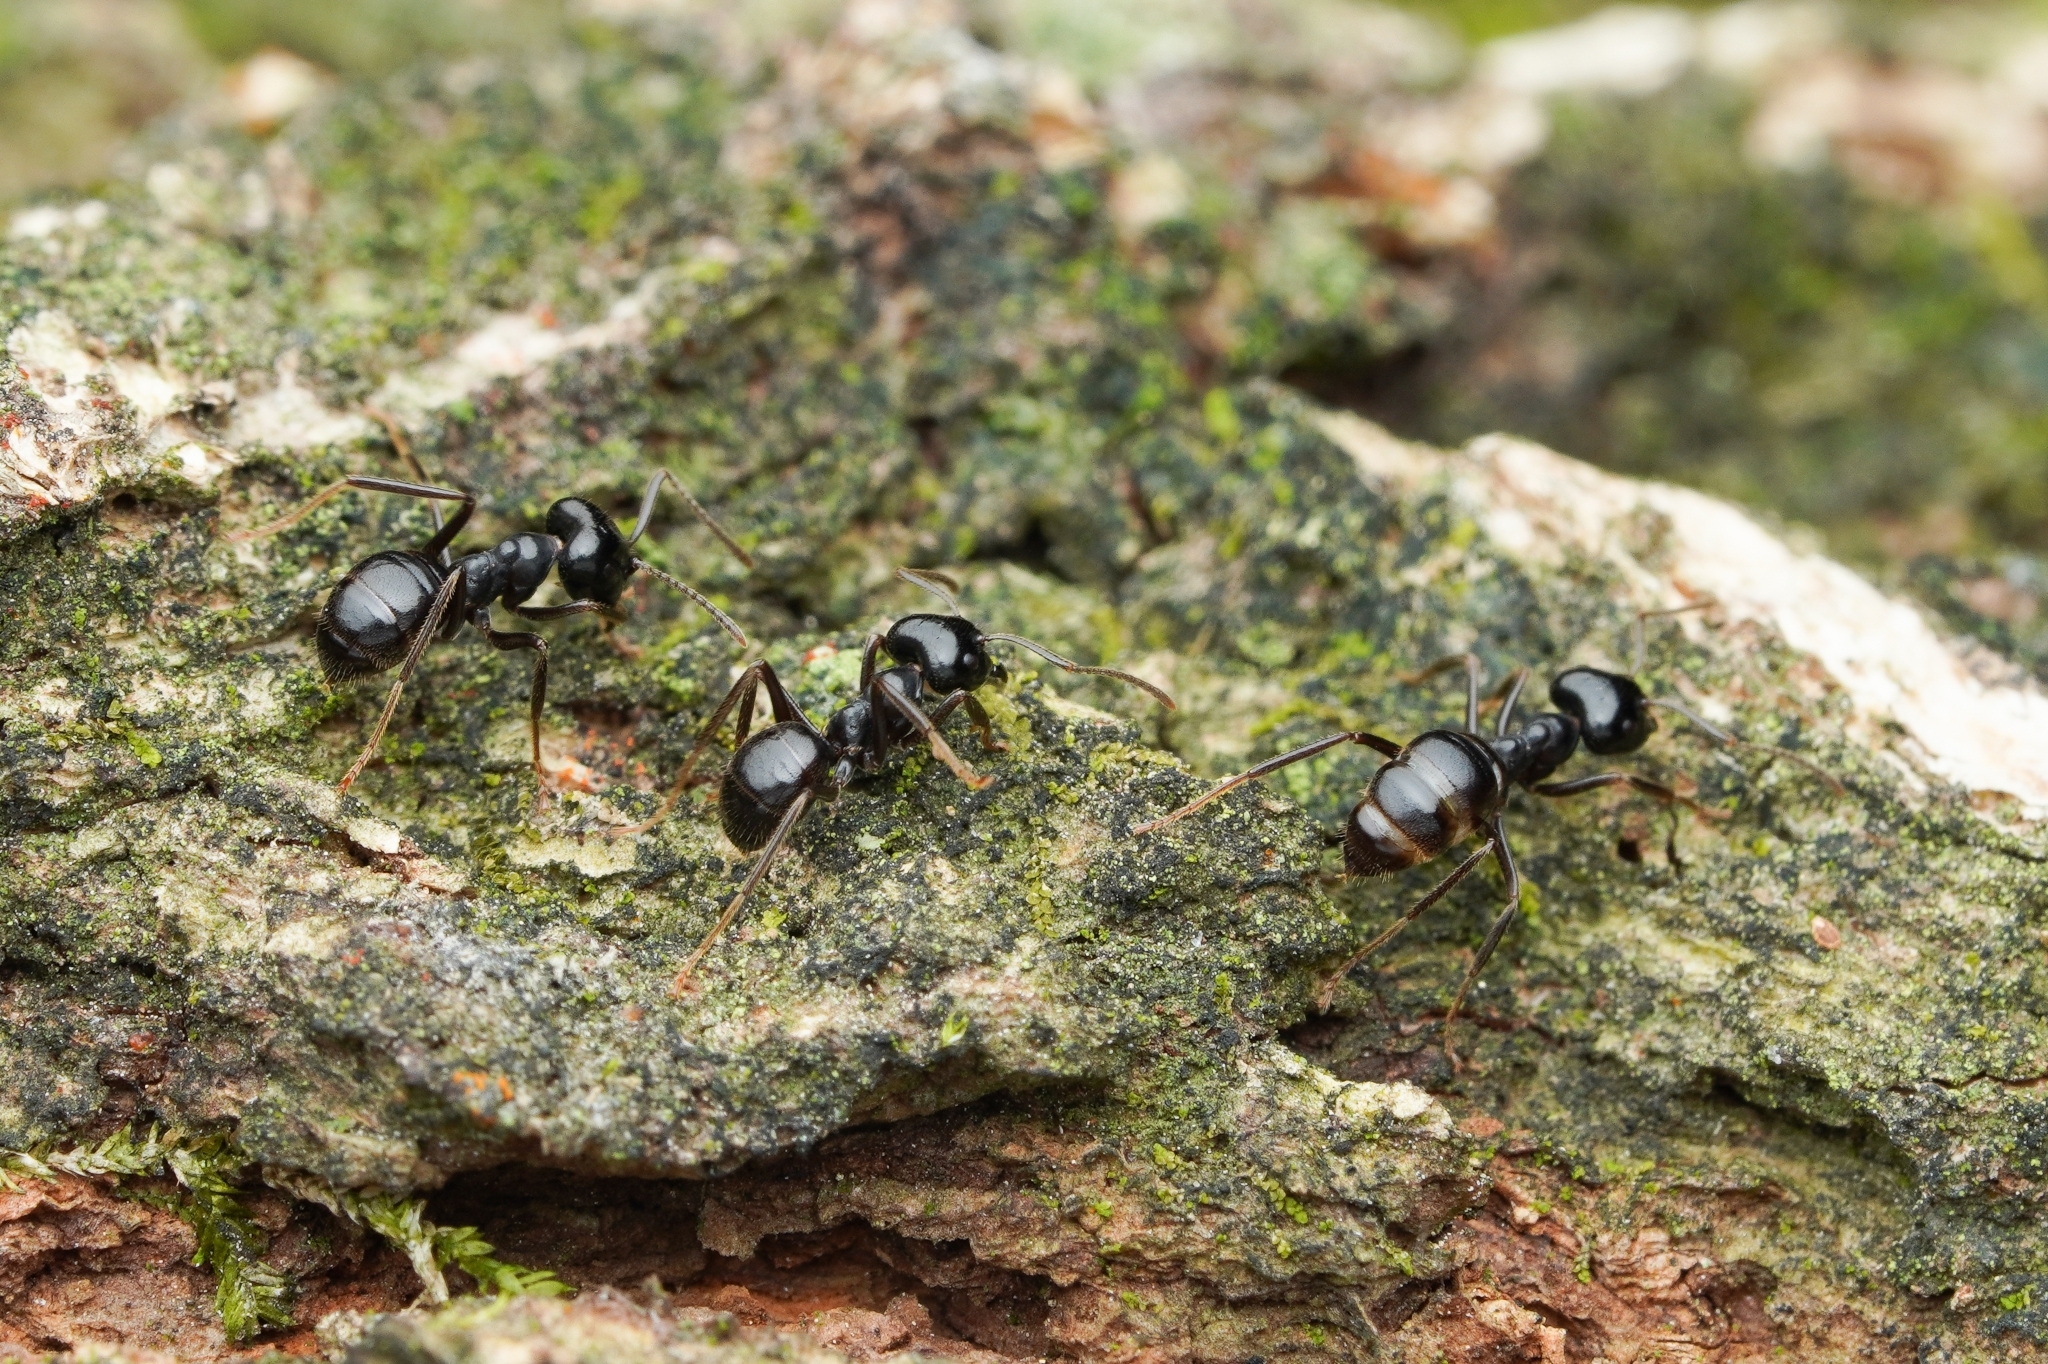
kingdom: Animalia
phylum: Arthropoda
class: Insecta
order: Hymenoptera
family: Formicidae
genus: Lasius
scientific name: Lasius spathepus
